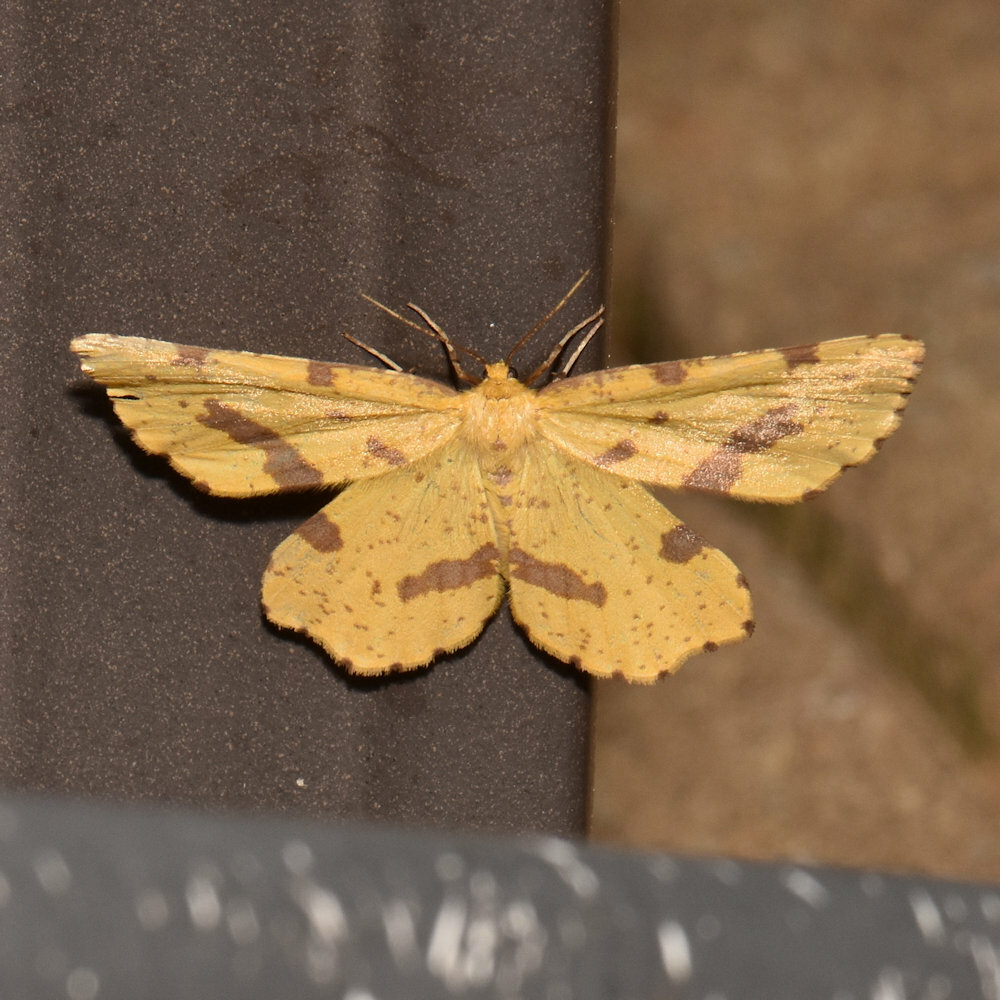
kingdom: Animalia
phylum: Arthropoda
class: Insecta
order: Lepidoptera
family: Geometridae
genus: Xanthotype
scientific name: Xanthotype
